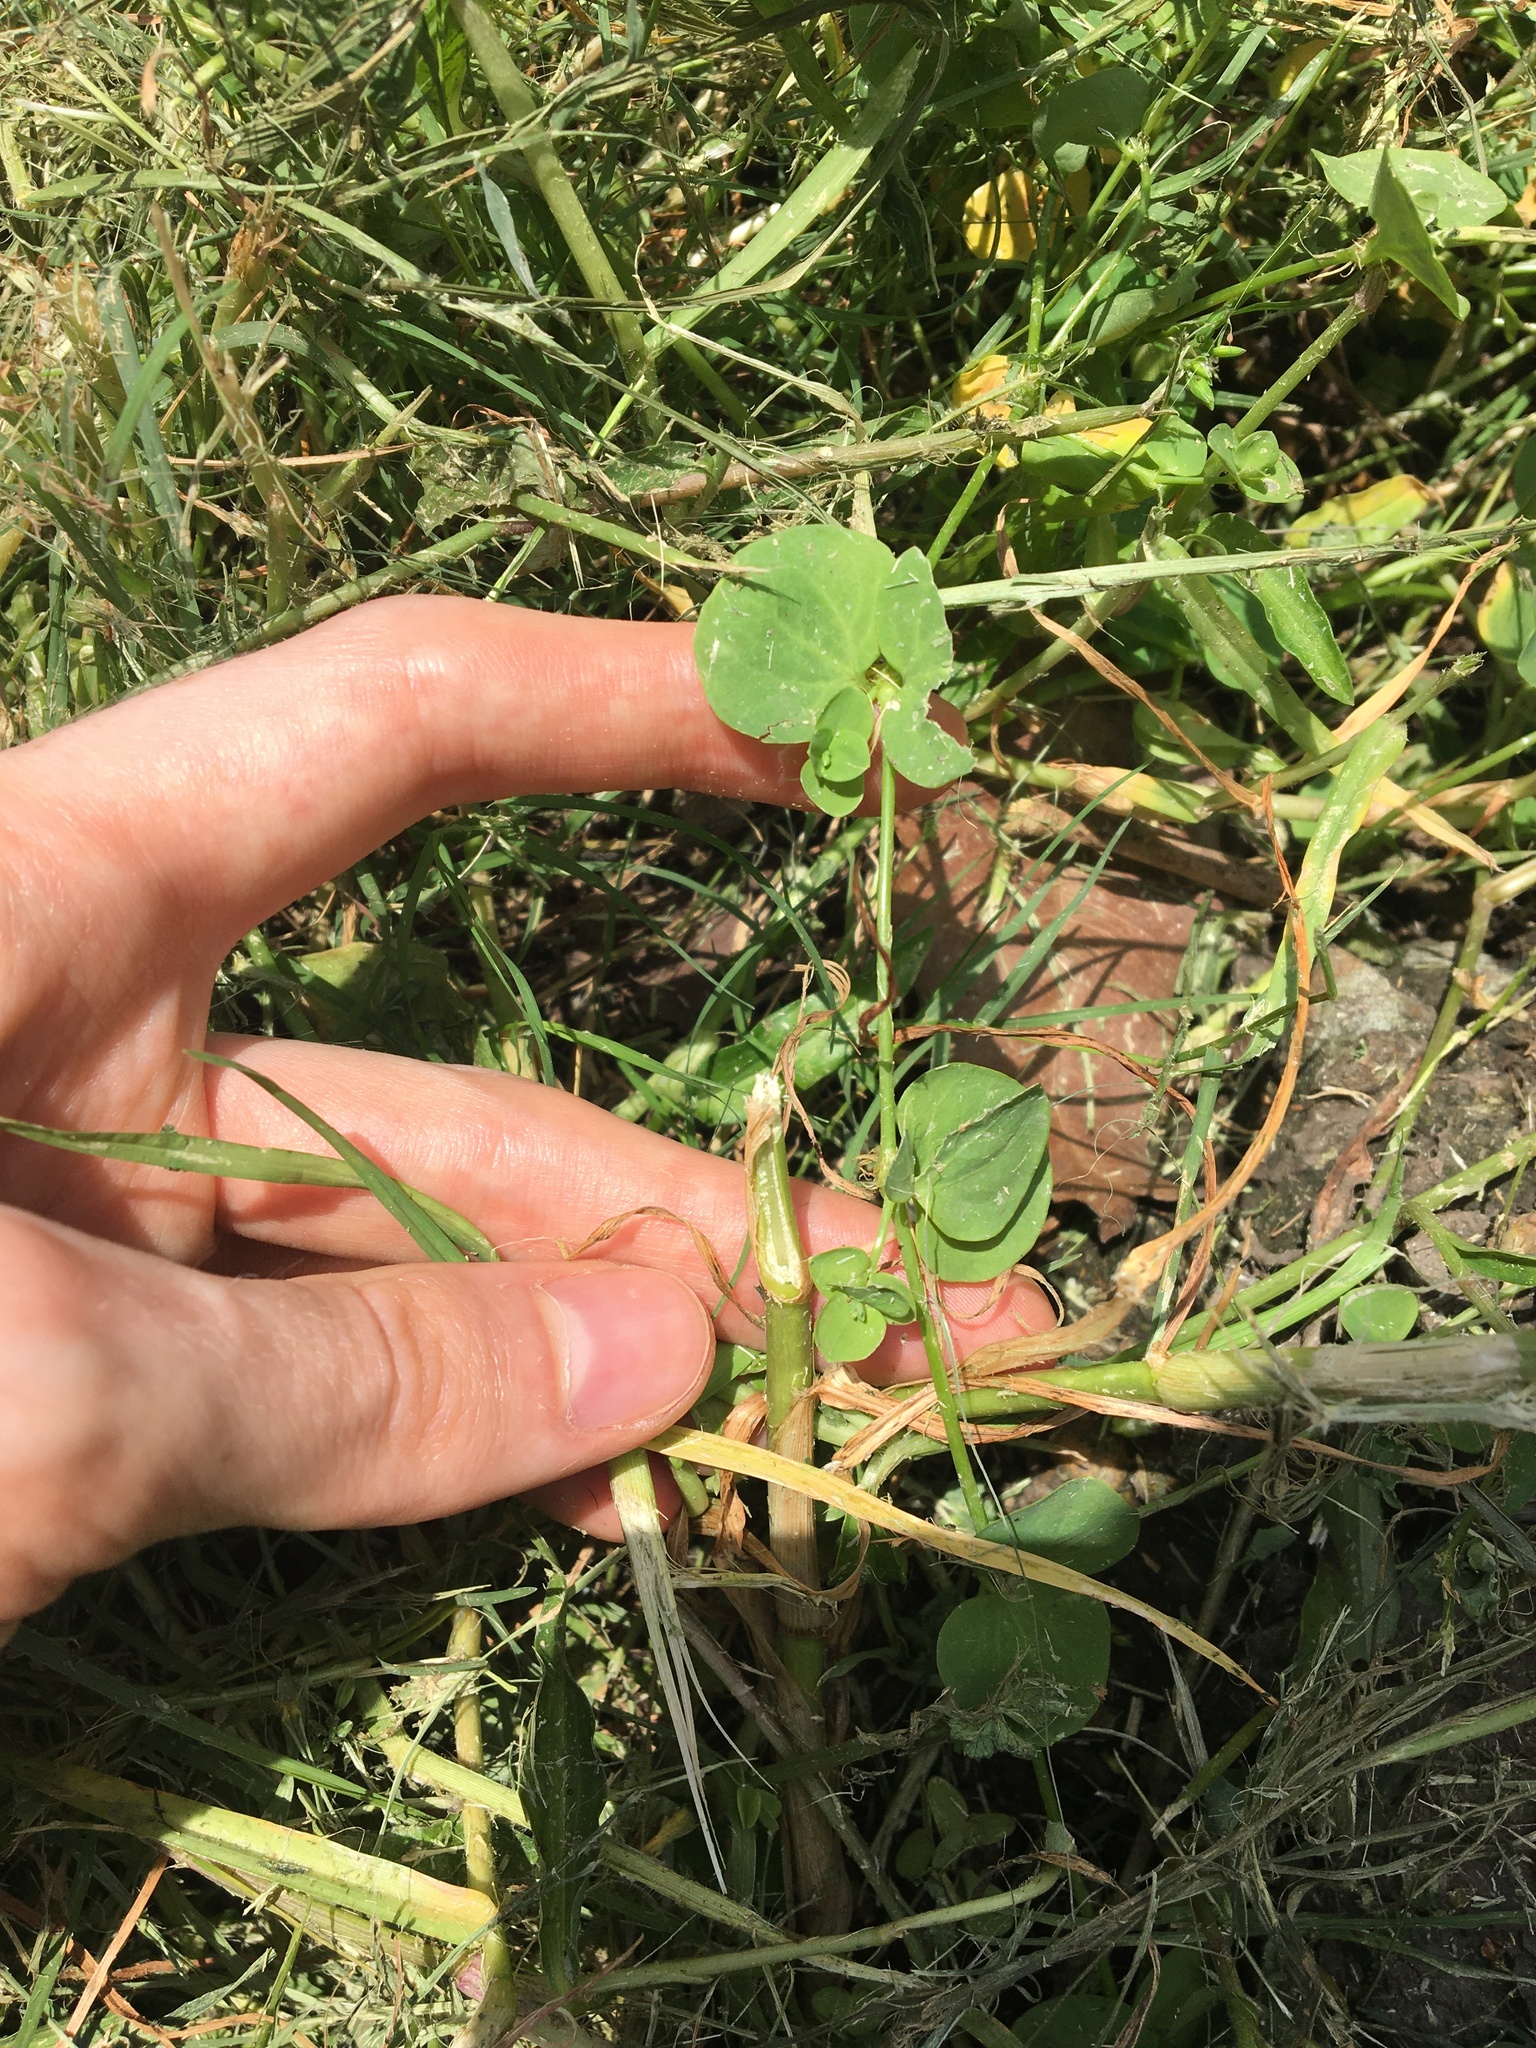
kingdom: Plantae
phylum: Tracheophyta
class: Magnoliopsida
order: Caryophyllales
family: Caryophyllaceae
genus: Drymaria
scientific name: Drymaria cordata
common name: Whitesnow
